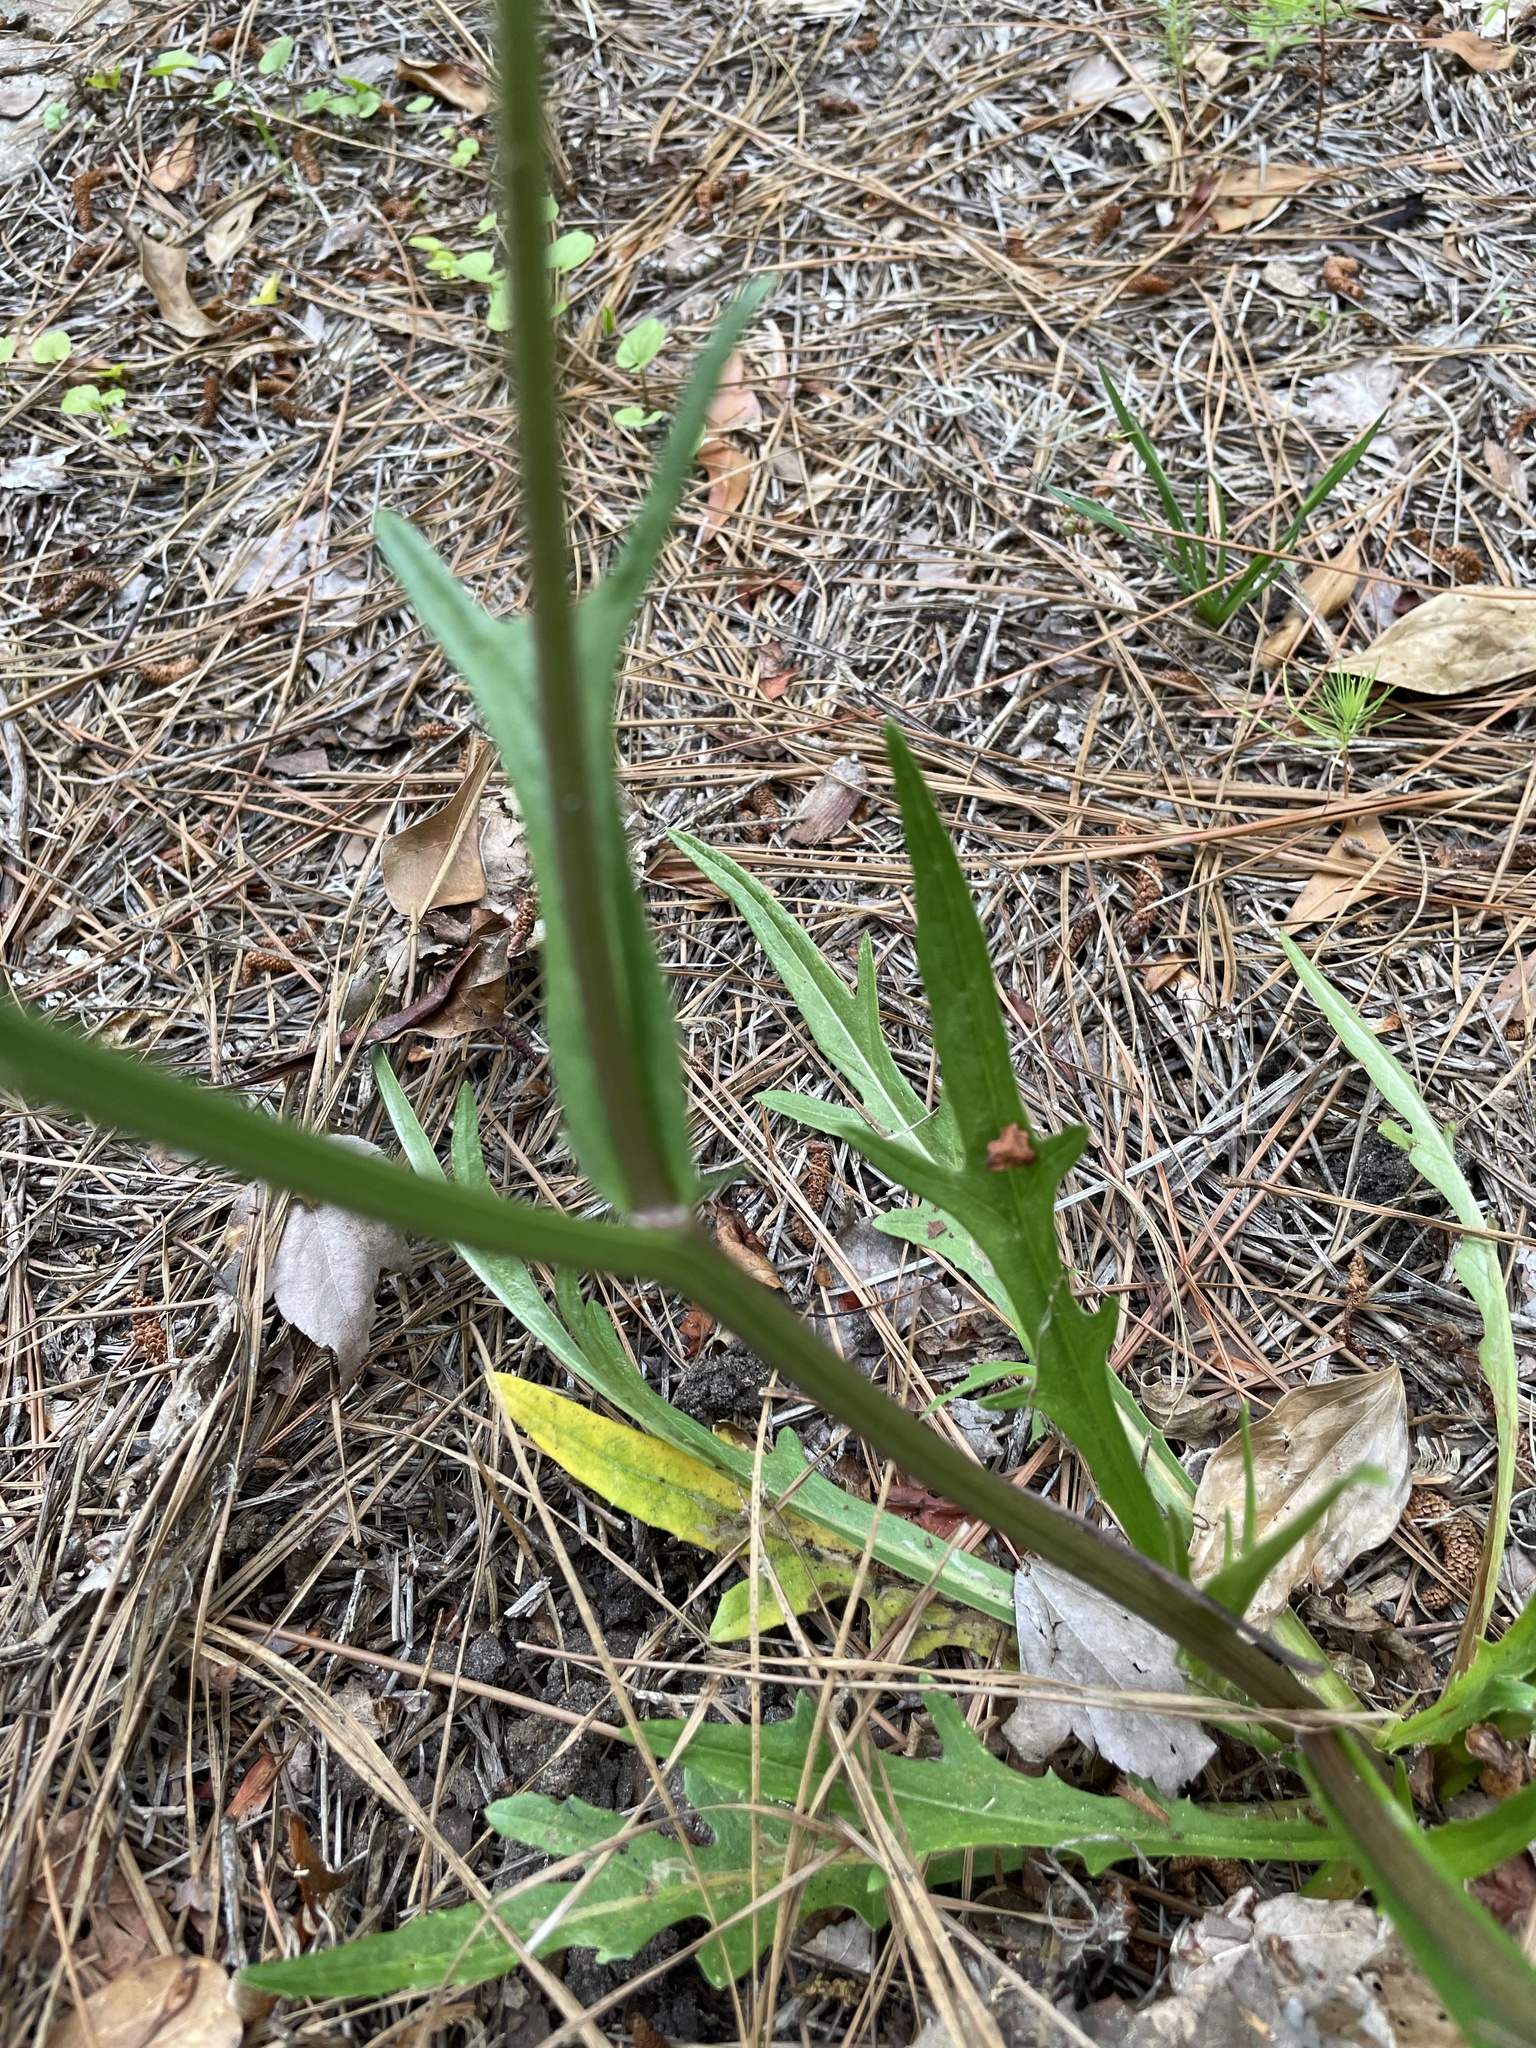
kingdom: Plantae
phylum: Tracheophyta
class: Magnoliopsida
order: Asterales
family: Asteraceae
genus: Pyrrhopappus
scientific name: Pyrrhopappus carolinianus
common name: Carolina desert-chicory
